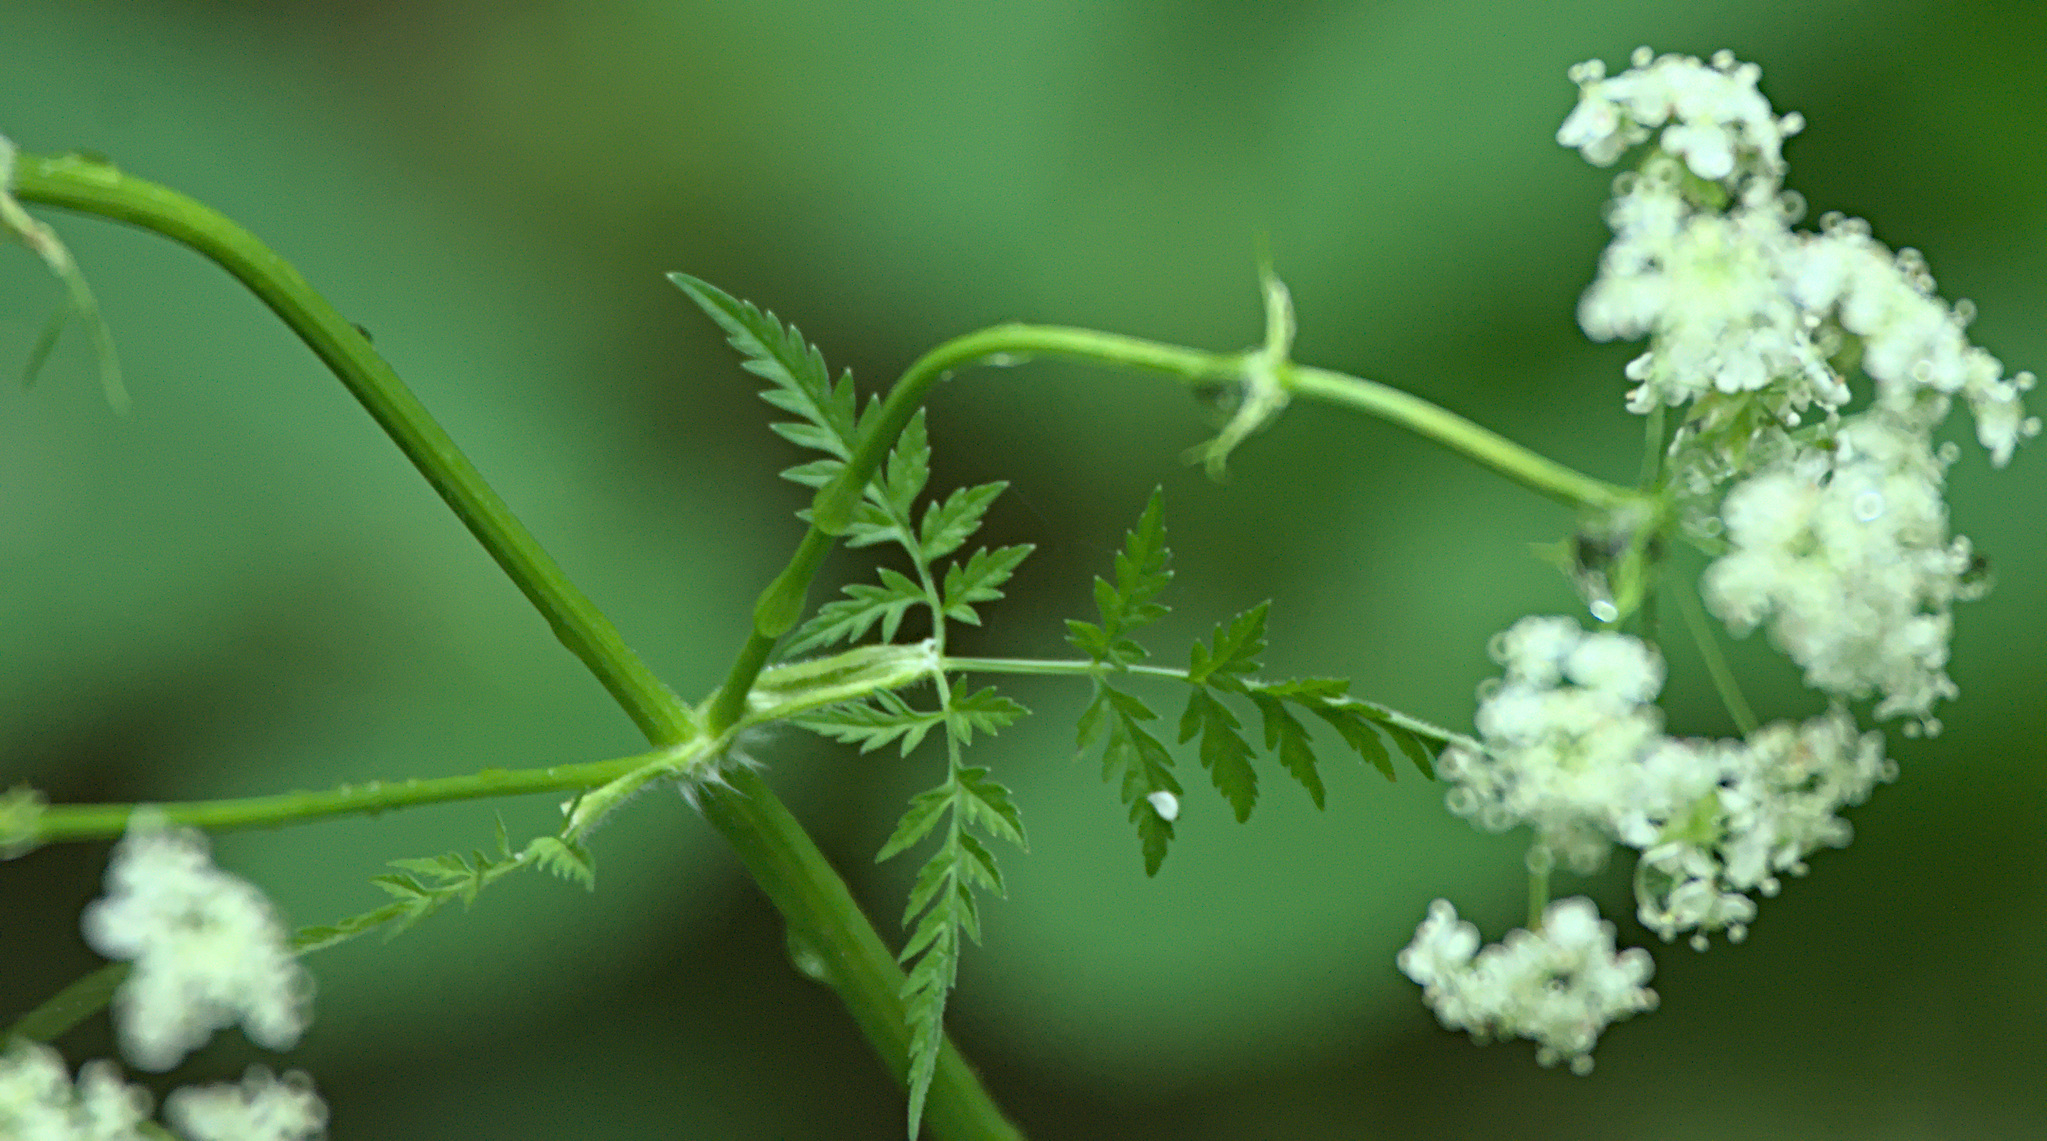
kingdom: Plantae
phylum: Tracheophyta
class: Magnoliopsida
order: Apiales
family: Apiaceae
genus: Anthriscus
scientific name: Anthriscus sylvestris
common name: Cow parsley
